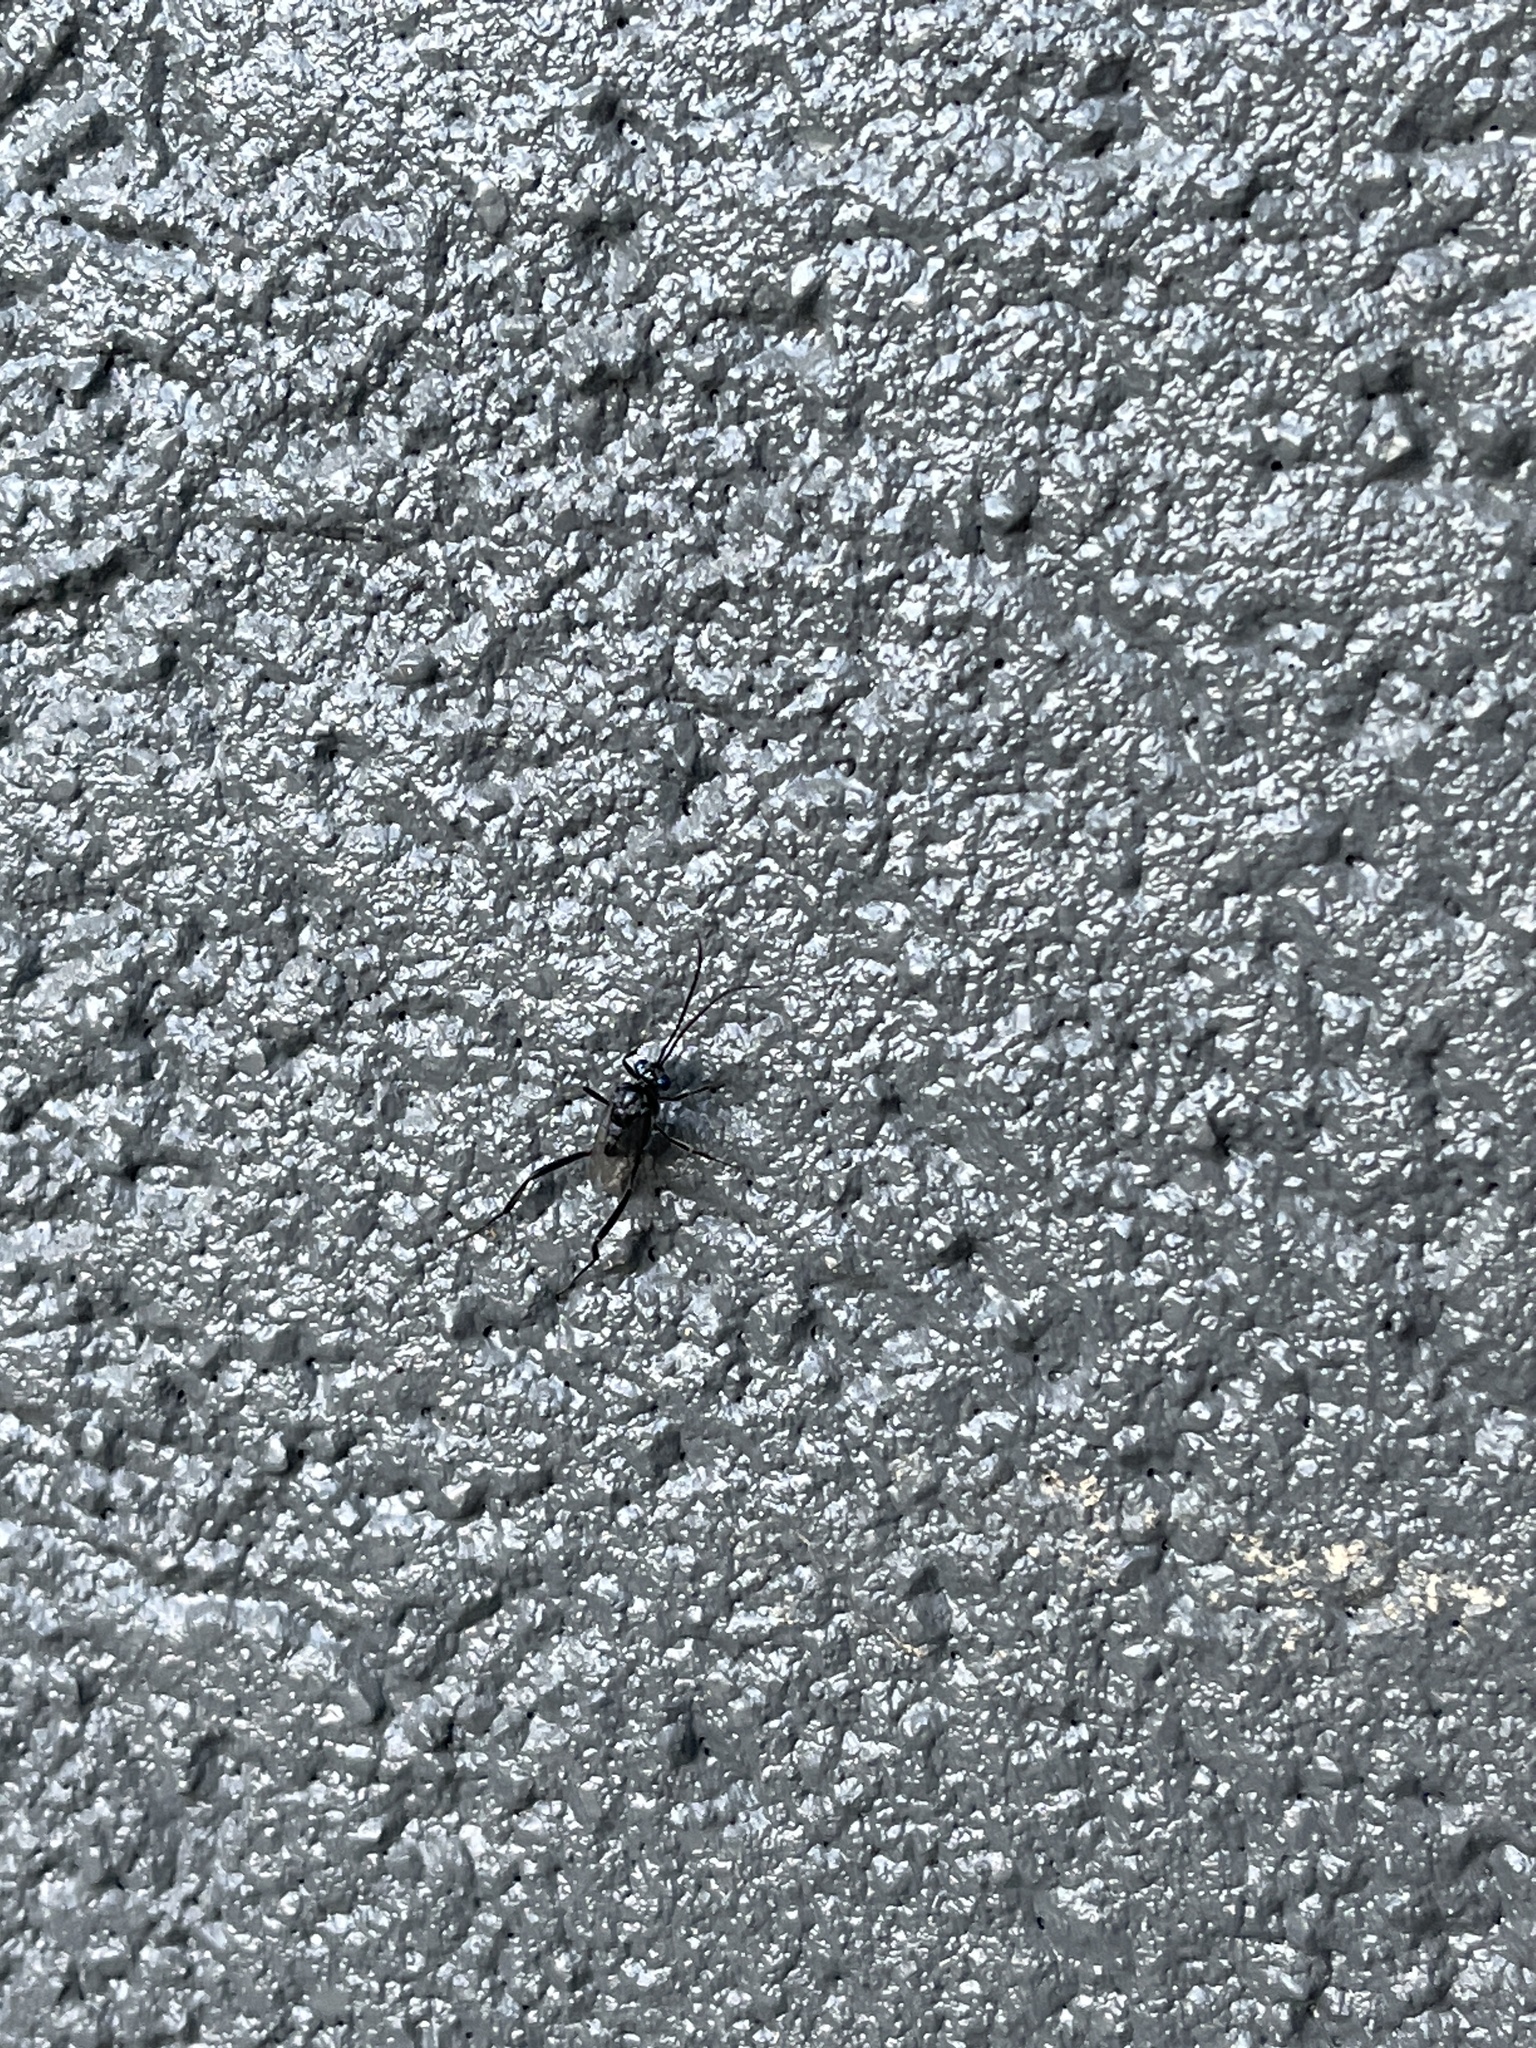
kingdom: Animalia
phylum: Arthropoda
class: Insecta
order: Hymenoptera
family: Evaniidae
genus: Evania
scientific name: Evania appendigaster
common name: Ensign wasp
